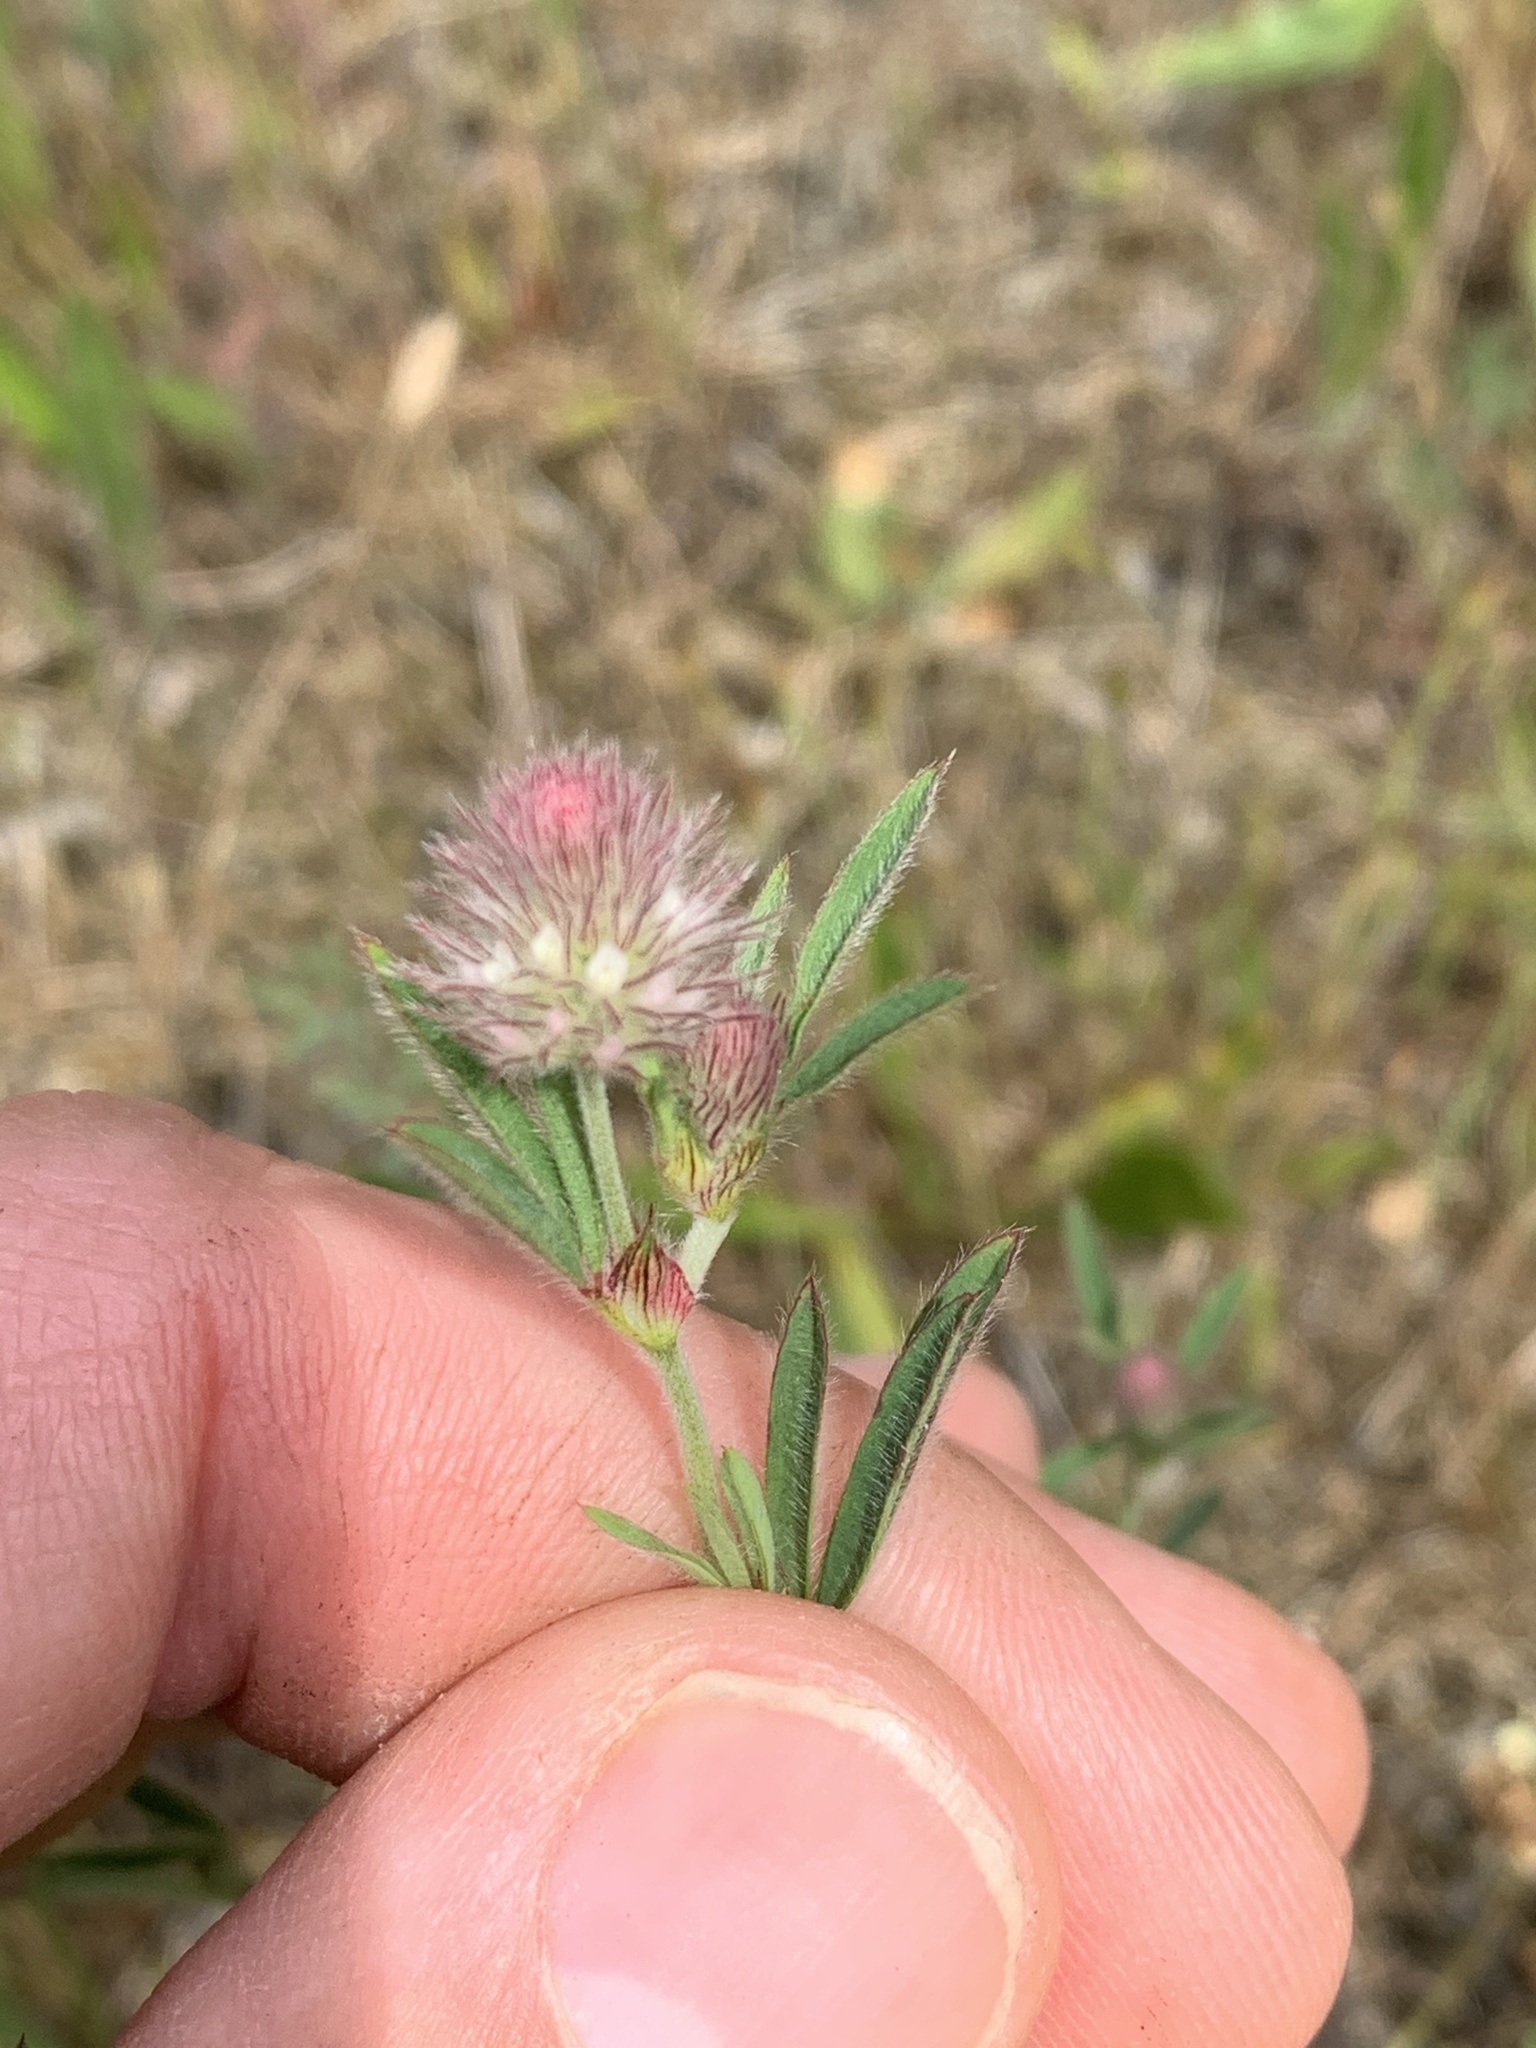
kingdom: Plantae
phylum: Tracheophyta
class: Magnoliopsida
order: Fabales
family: Fabaceae
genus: Trifolium
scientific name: Trifolium arvense
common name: Hare's-foot clover
